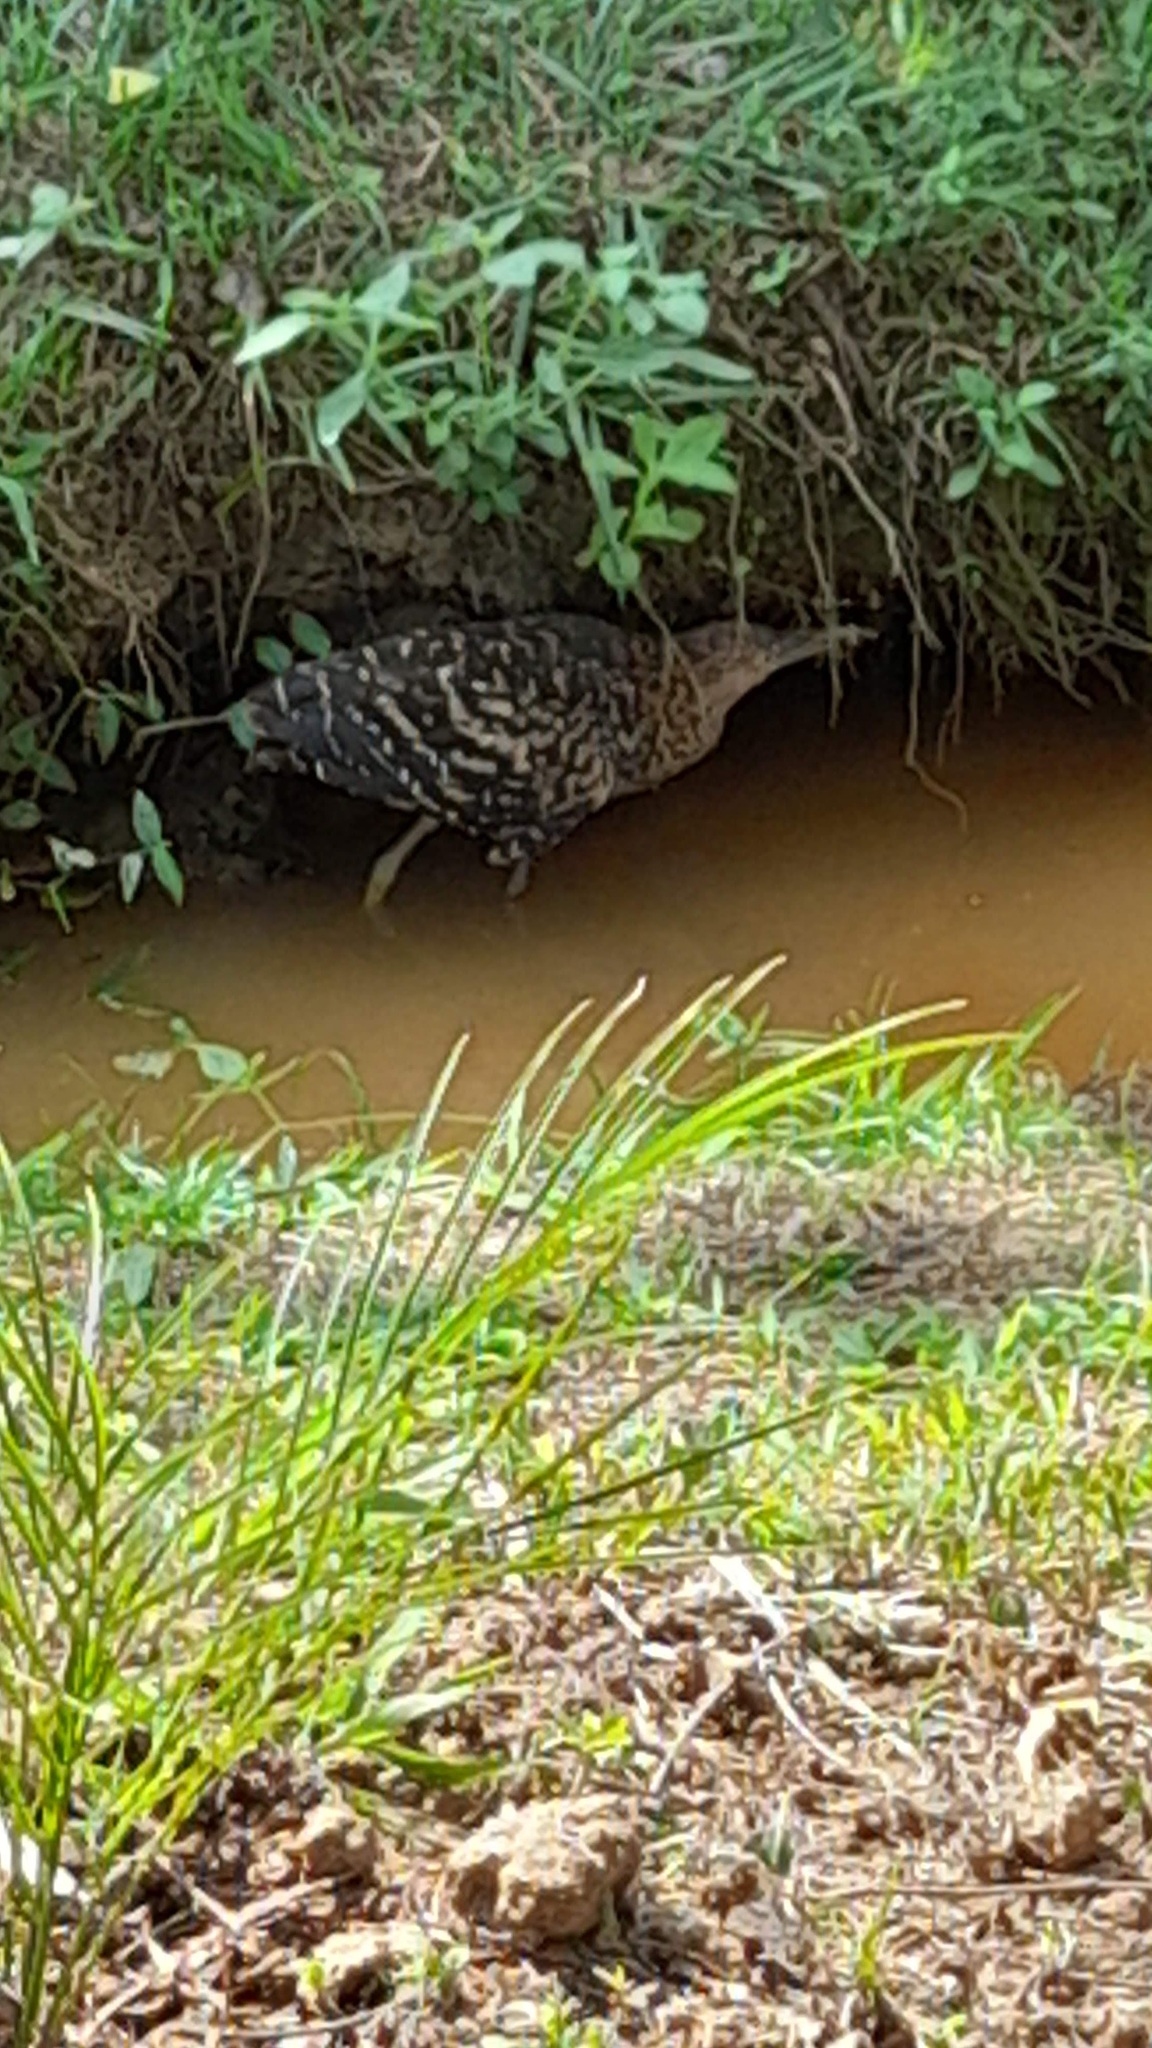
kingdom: Animalia
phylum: Chordata
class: Aves
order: Pelecaniformes
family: Ardeidae
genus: Tigrisoma
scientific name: Tigrisoma lineatum
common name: Rufescent tiger-heron
